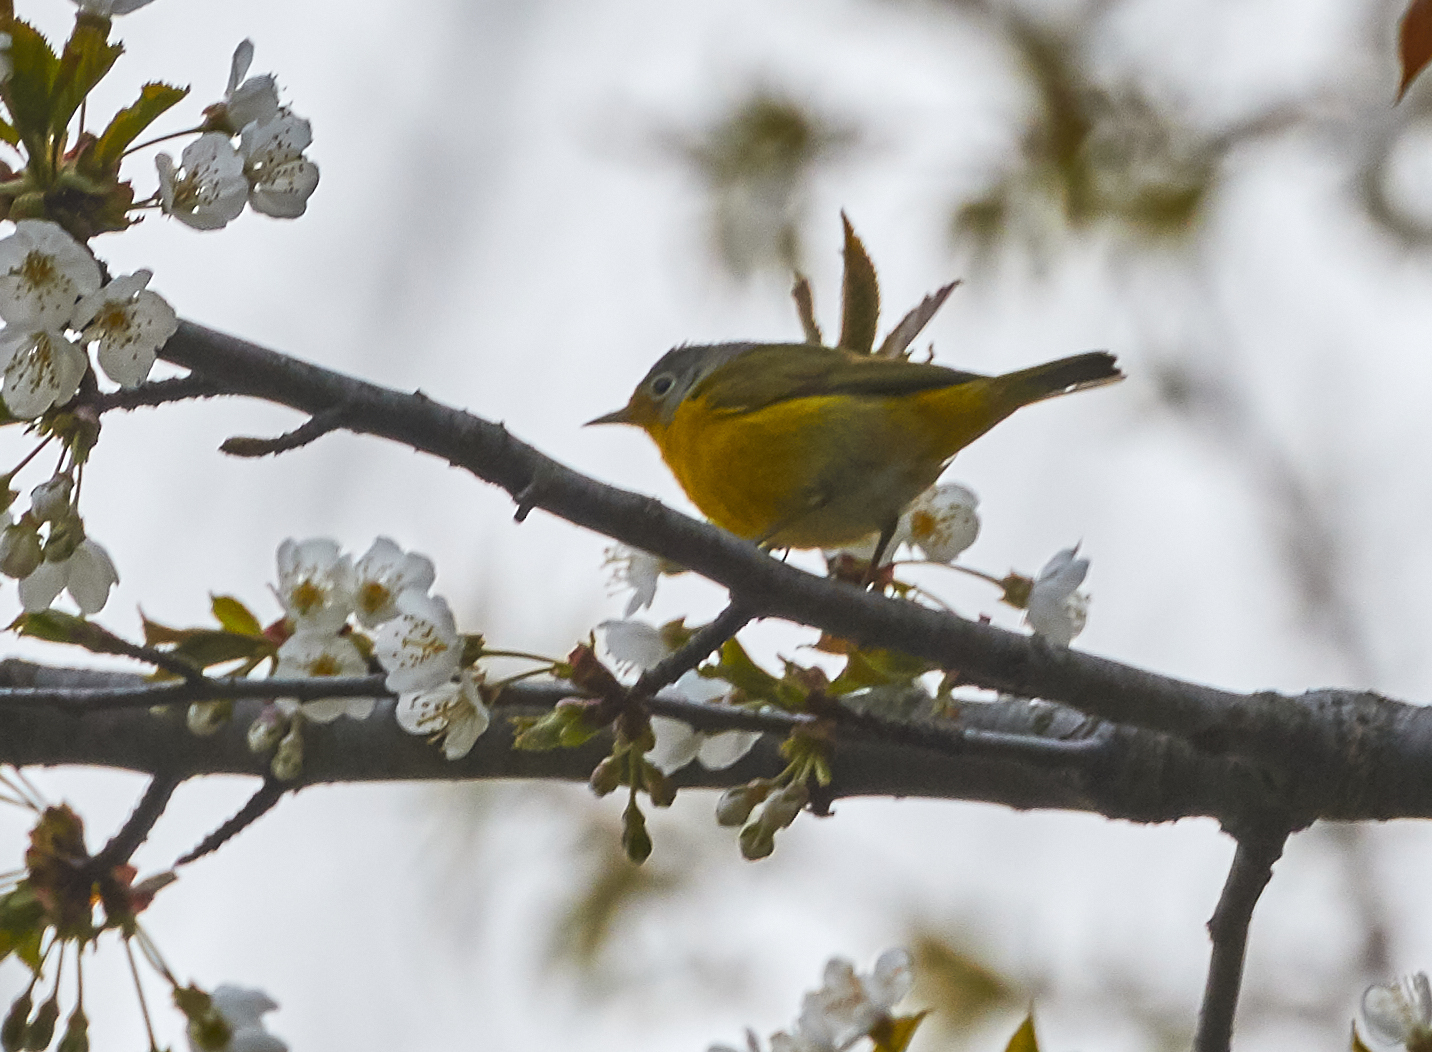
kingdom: Animalia
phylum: Chordata
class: Aves
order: Passeriformes
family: Parulidae
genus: Leiothlypis
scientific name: Leiothlypis ruficapilla
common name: Nashville warbler
